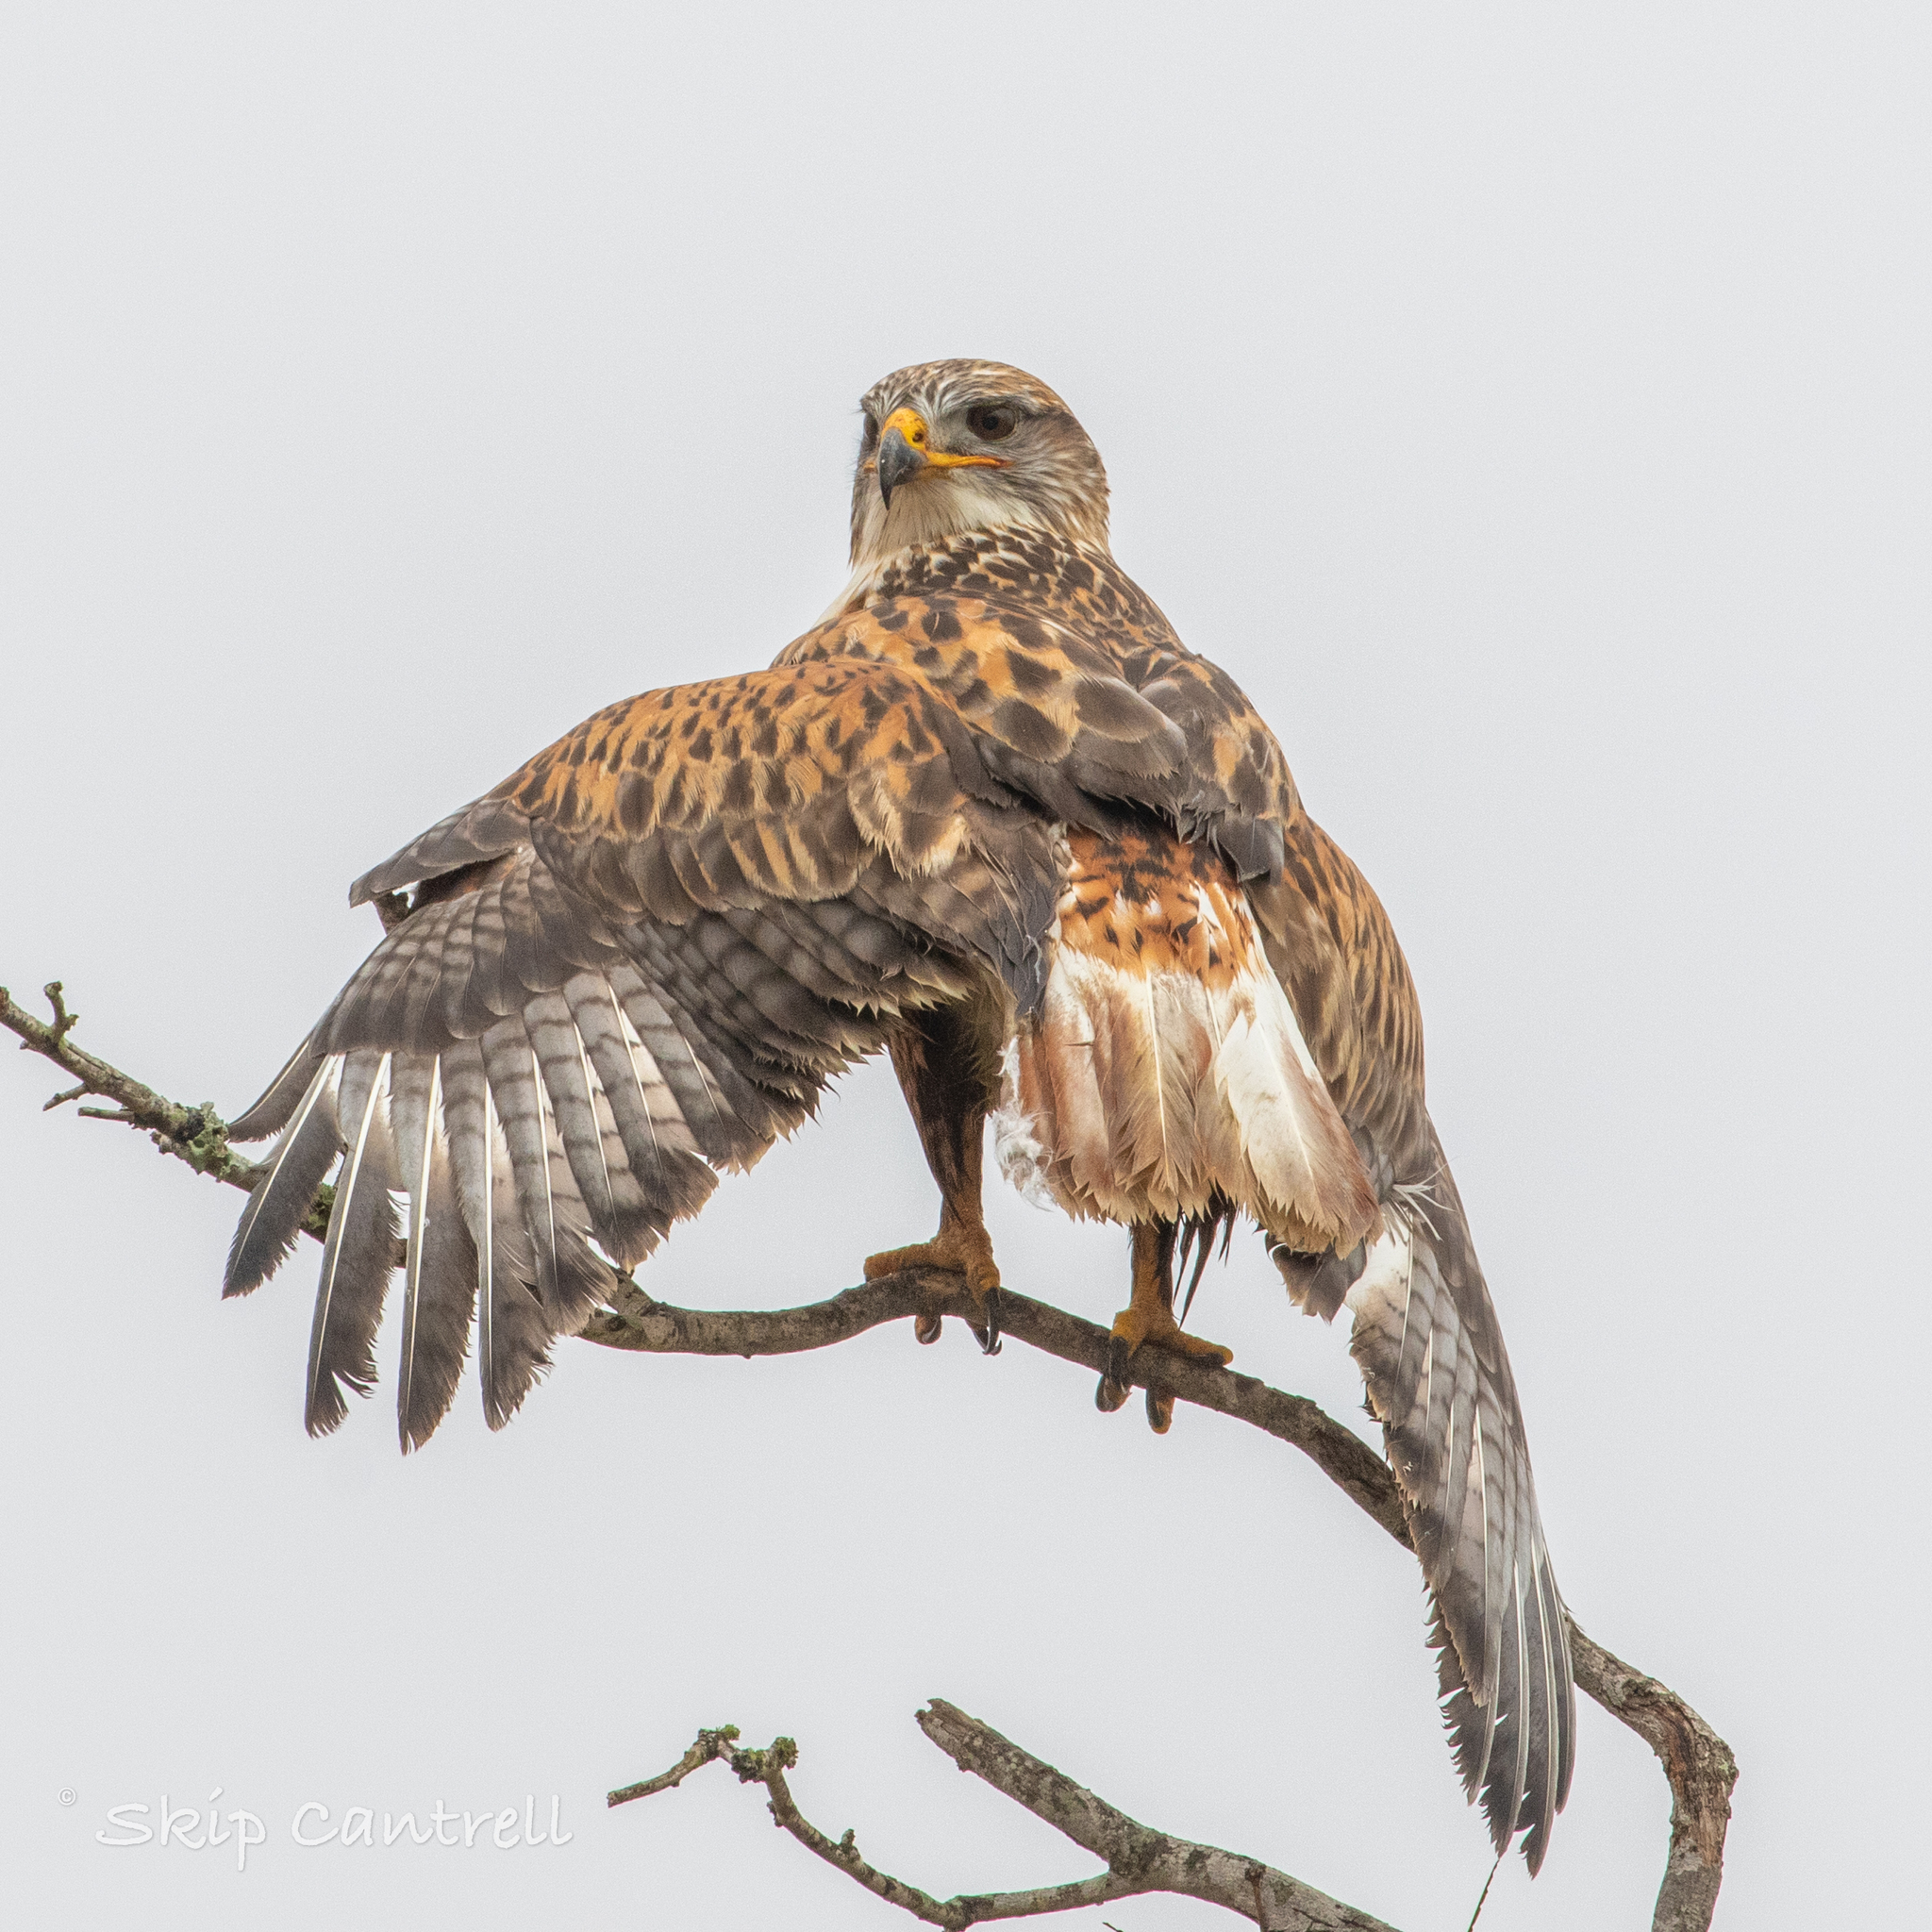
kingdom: Animalia
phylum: Chordata
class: Aves
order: Accipitriformes
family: Accipitridae
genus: Buteo
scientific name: Buteo regalis
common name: Ferruginous hawk
